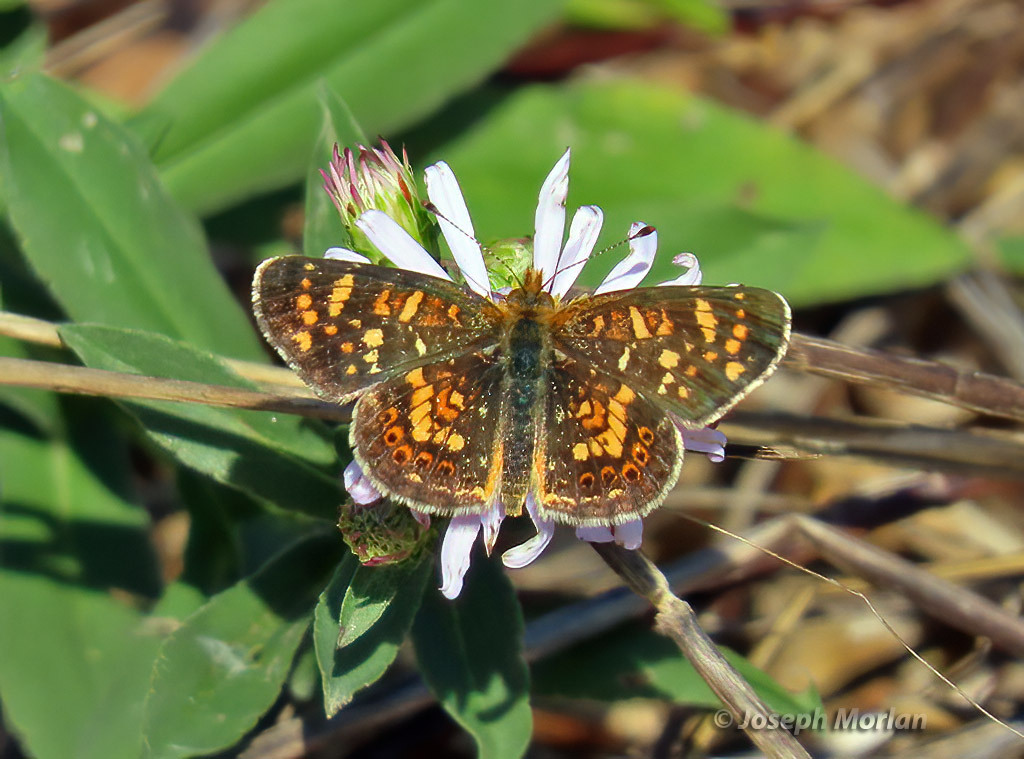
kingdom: Animalia
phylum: Arthropoda
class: Insecta
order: Lepidoptera
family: Nymphalidae
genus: Phyciodes
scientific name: Phyciodes tharos
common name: Pearl crescent
